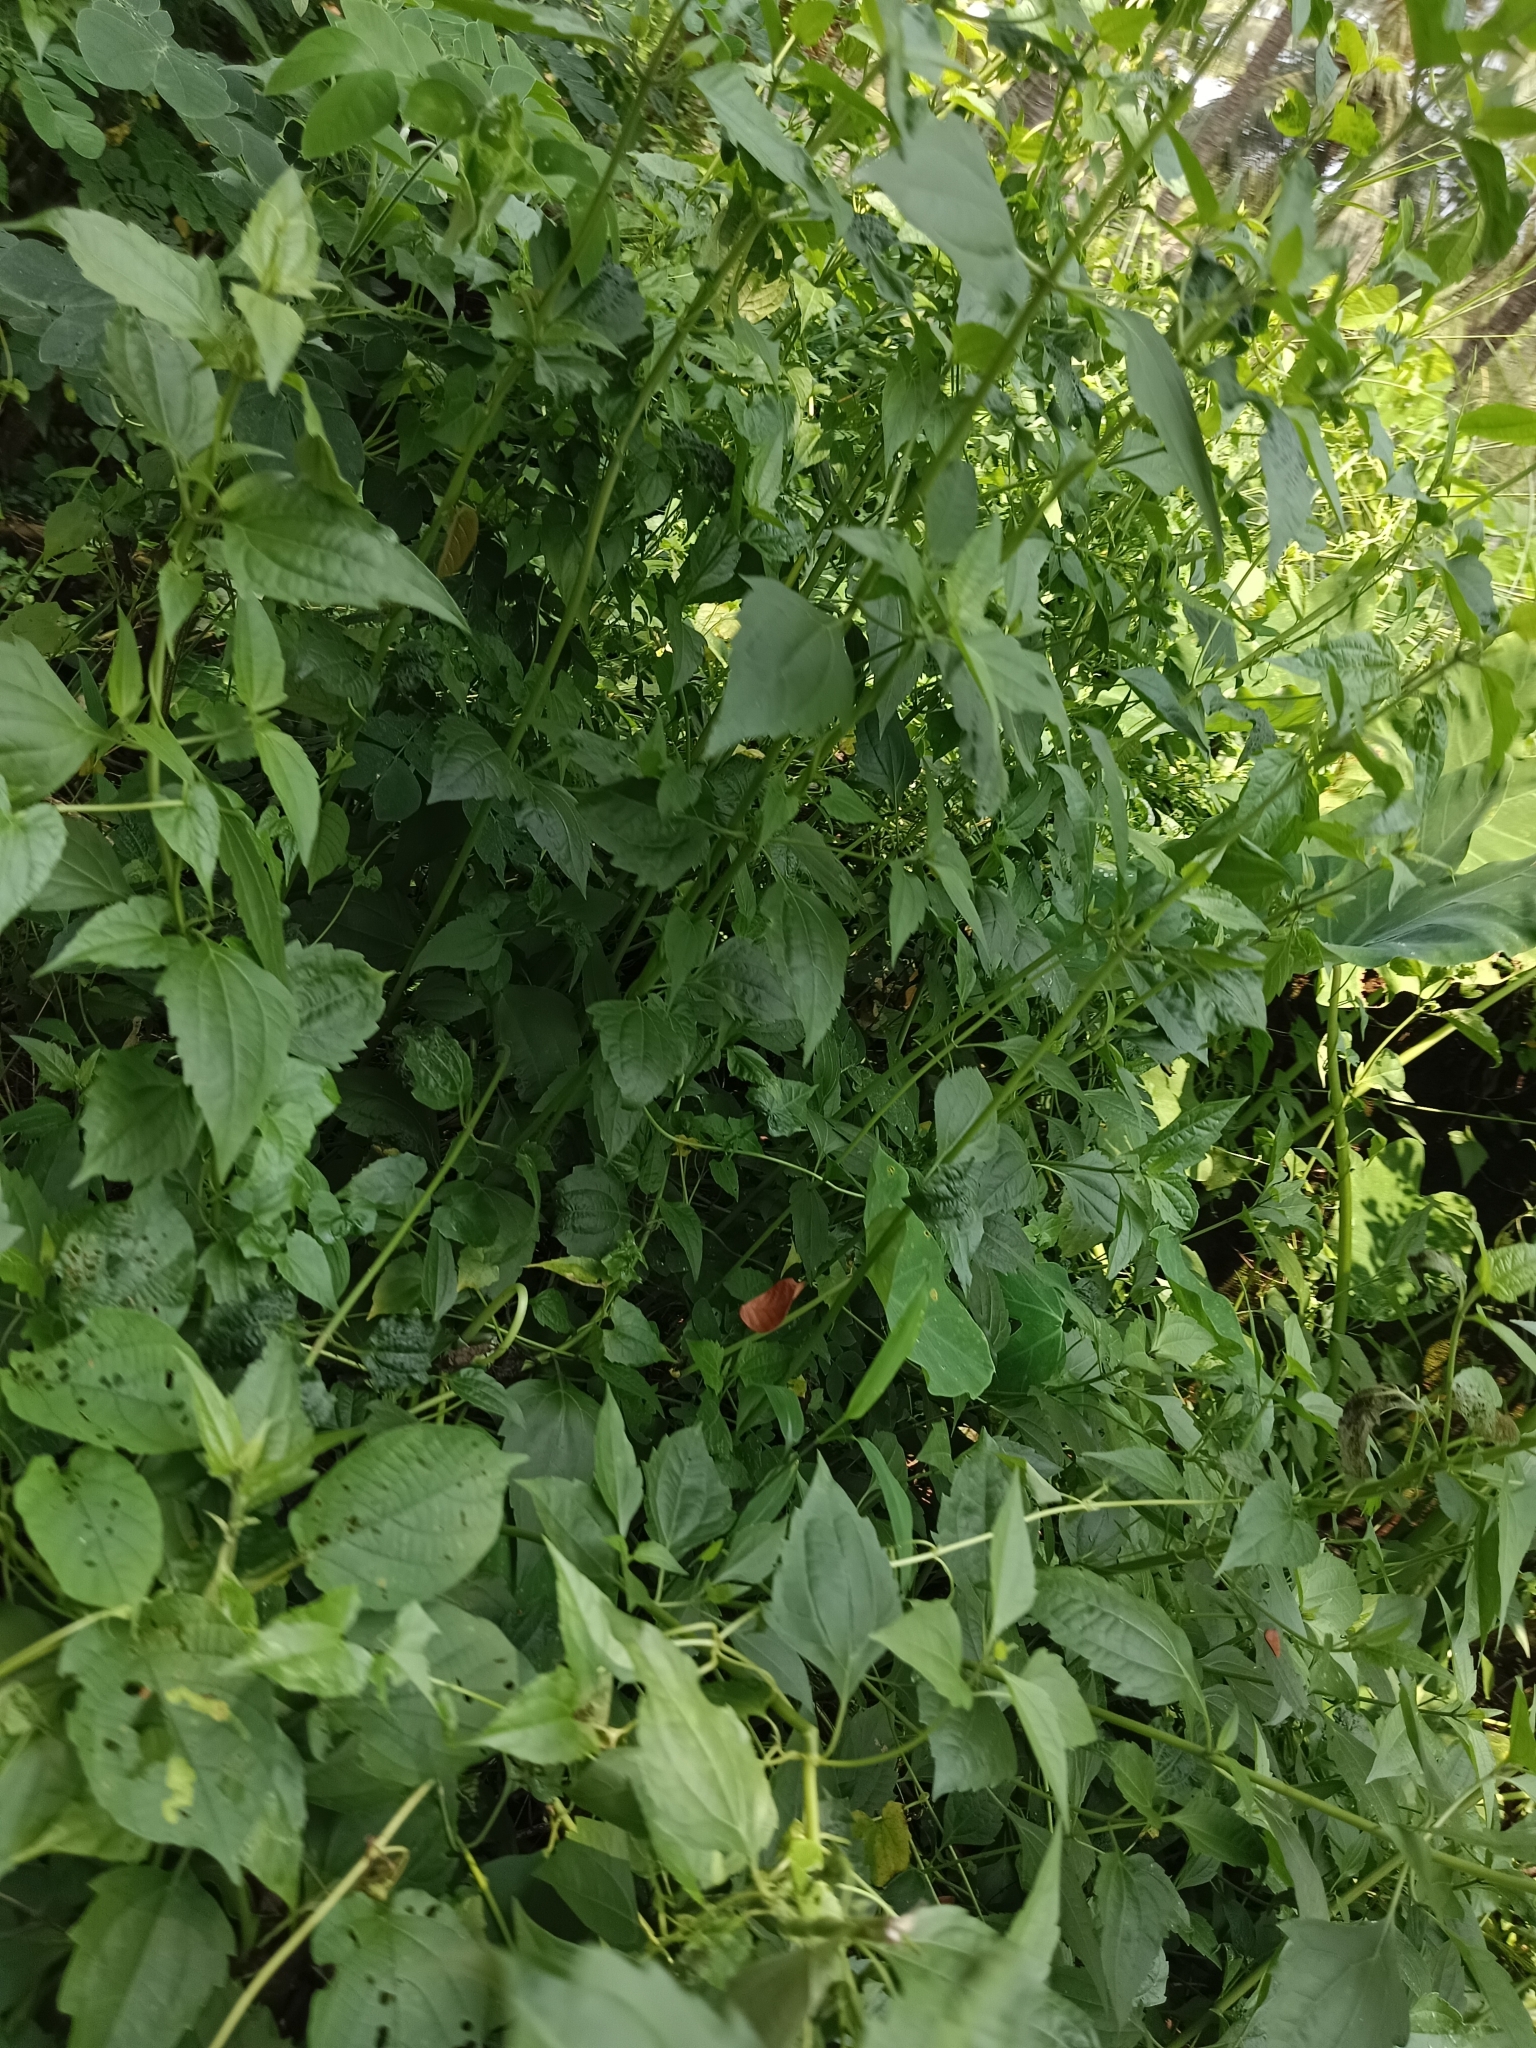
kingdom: Plantae
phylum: Tracheophyta
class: Magnoliopsida
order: Asterales
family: Asteraceae
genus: Chromolaena
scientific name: Chromolaena odorata
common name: Siamweed
